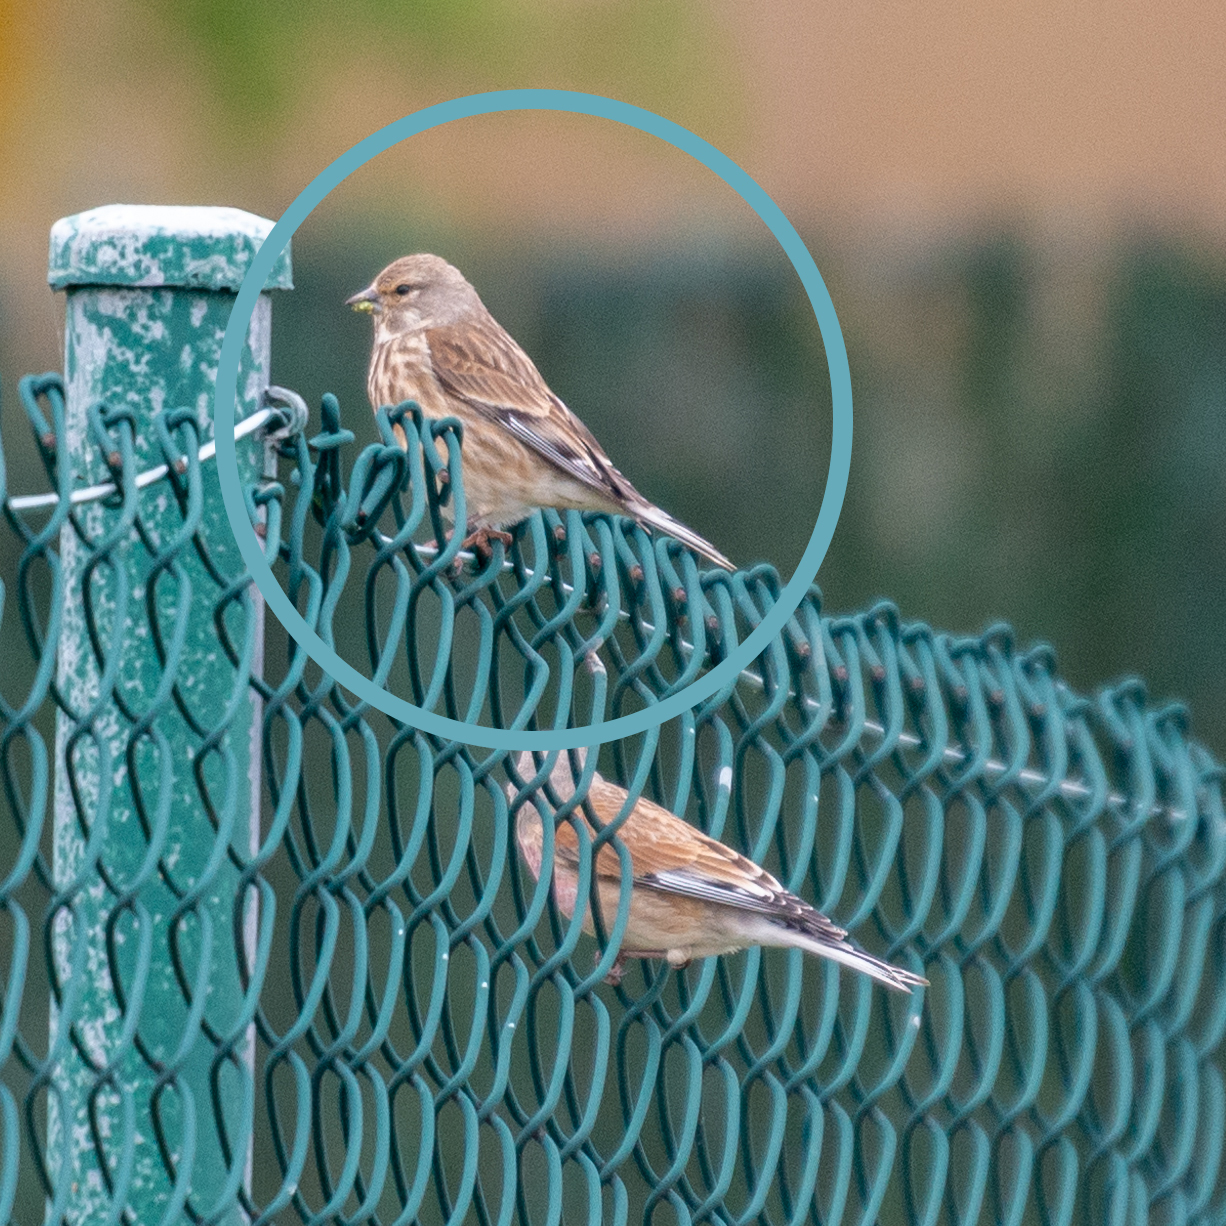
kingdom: Animalia
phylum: Chordata
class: Aves
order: Passeriformes
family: Fringillidae
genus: Linaria
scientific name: Linaria cannabina
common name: Common linnet
